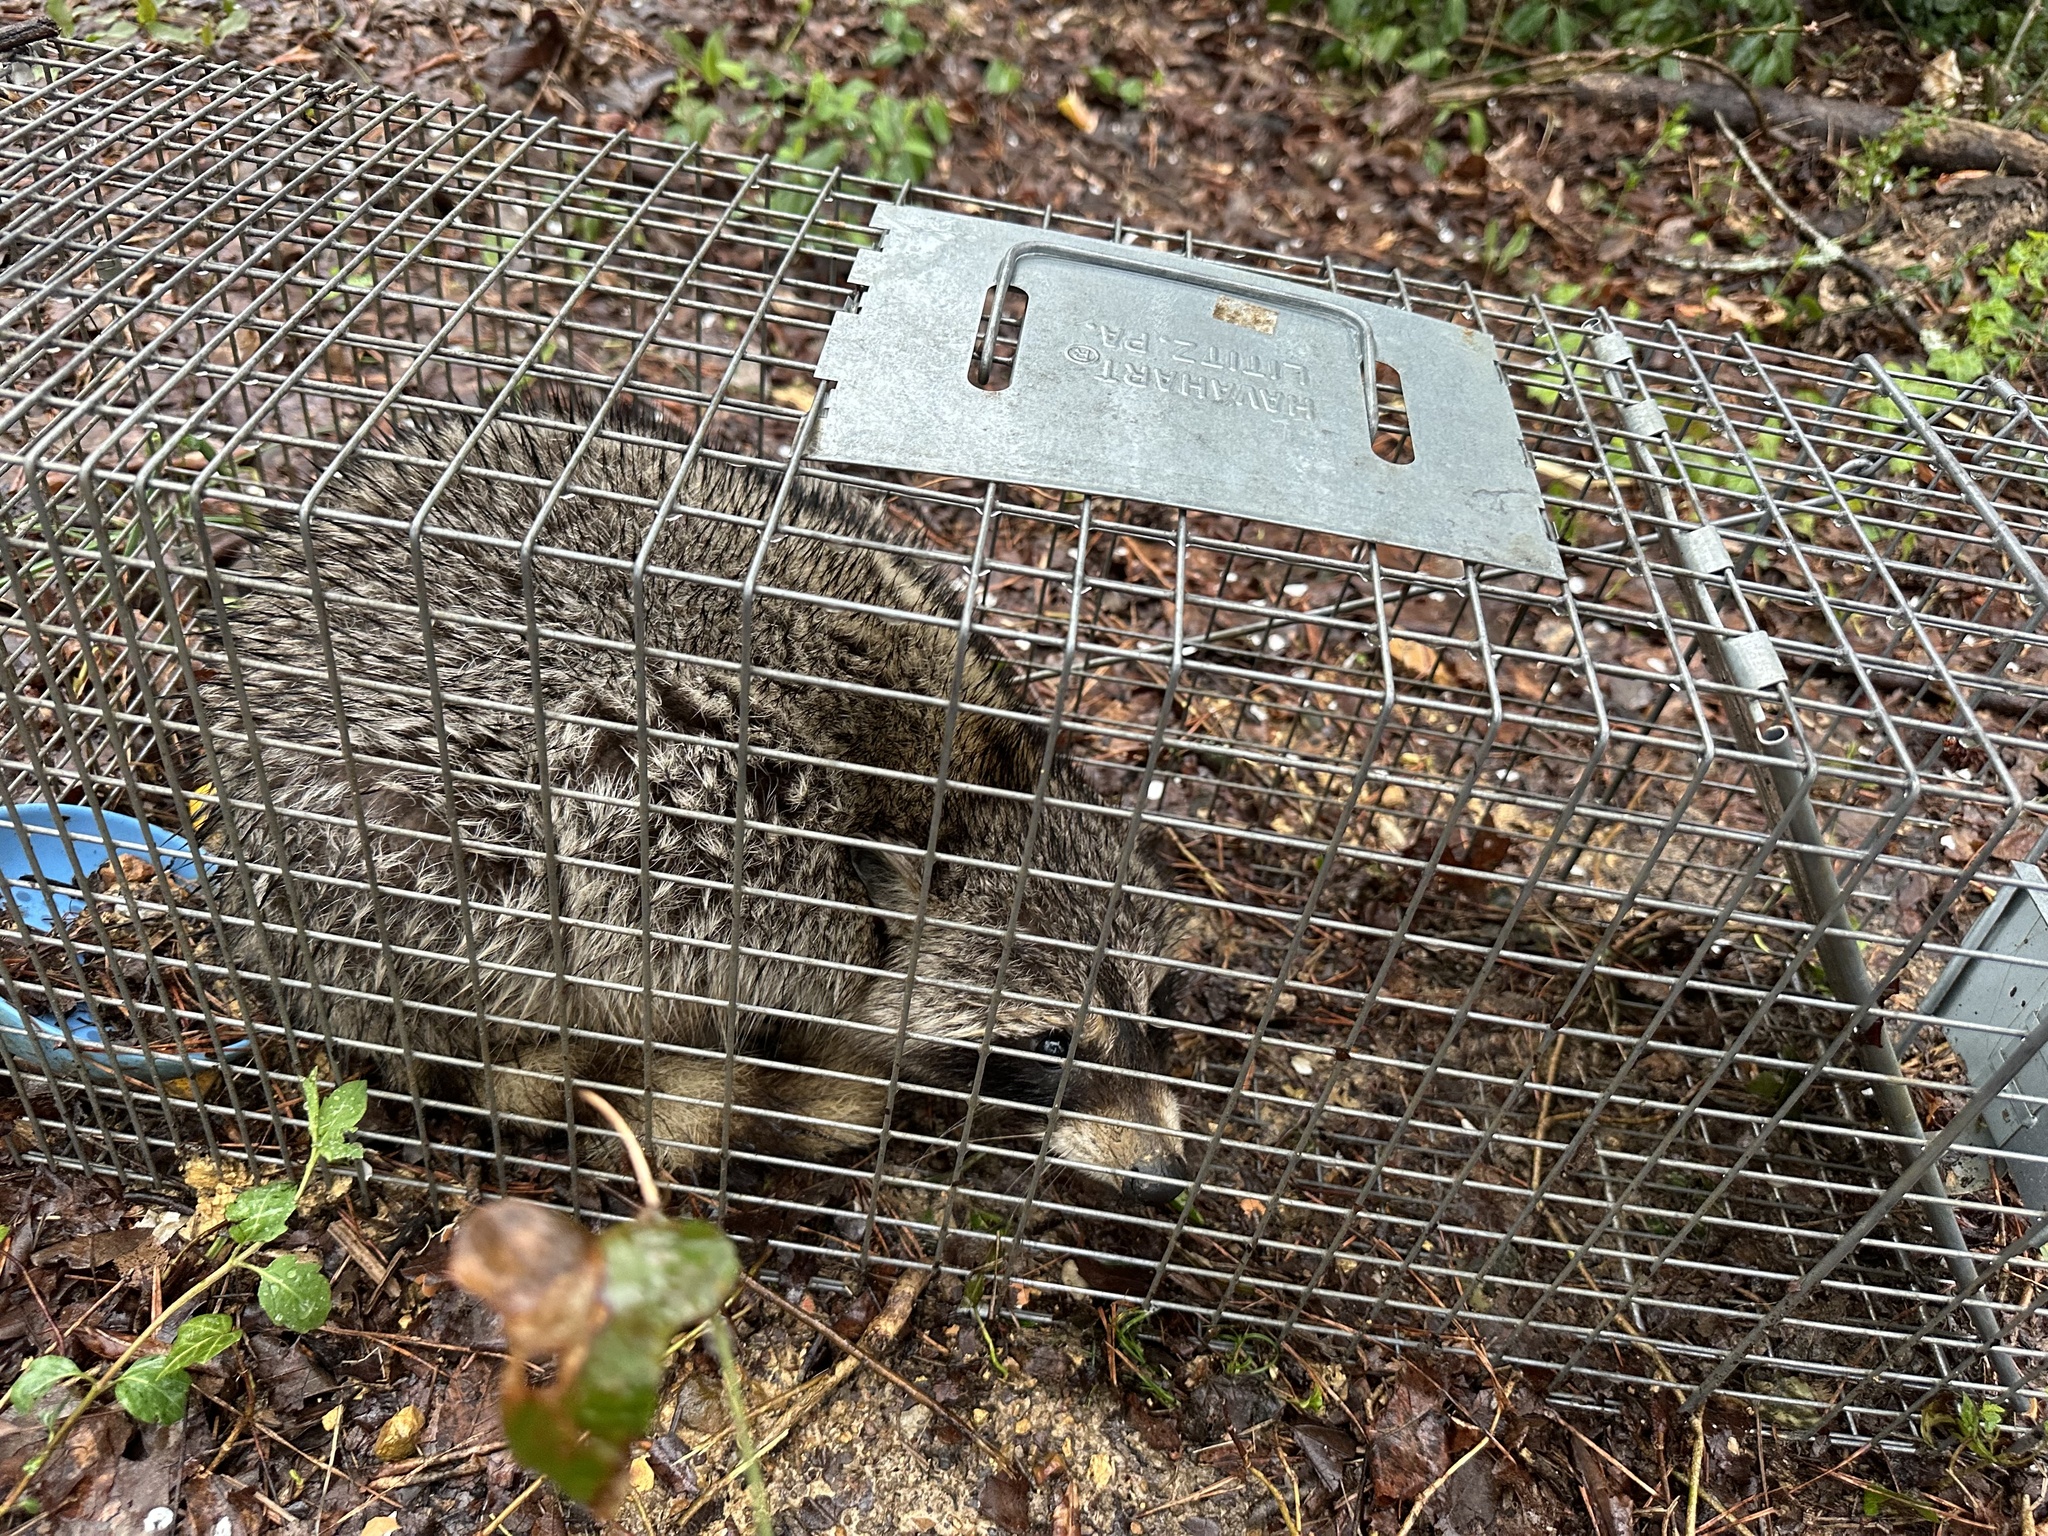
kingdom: Animalia
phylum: Chordata
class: Mammalia
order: Carnivora
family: Procyonidae
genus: Procyon
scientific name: Procyon lotor
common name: Raccoon
